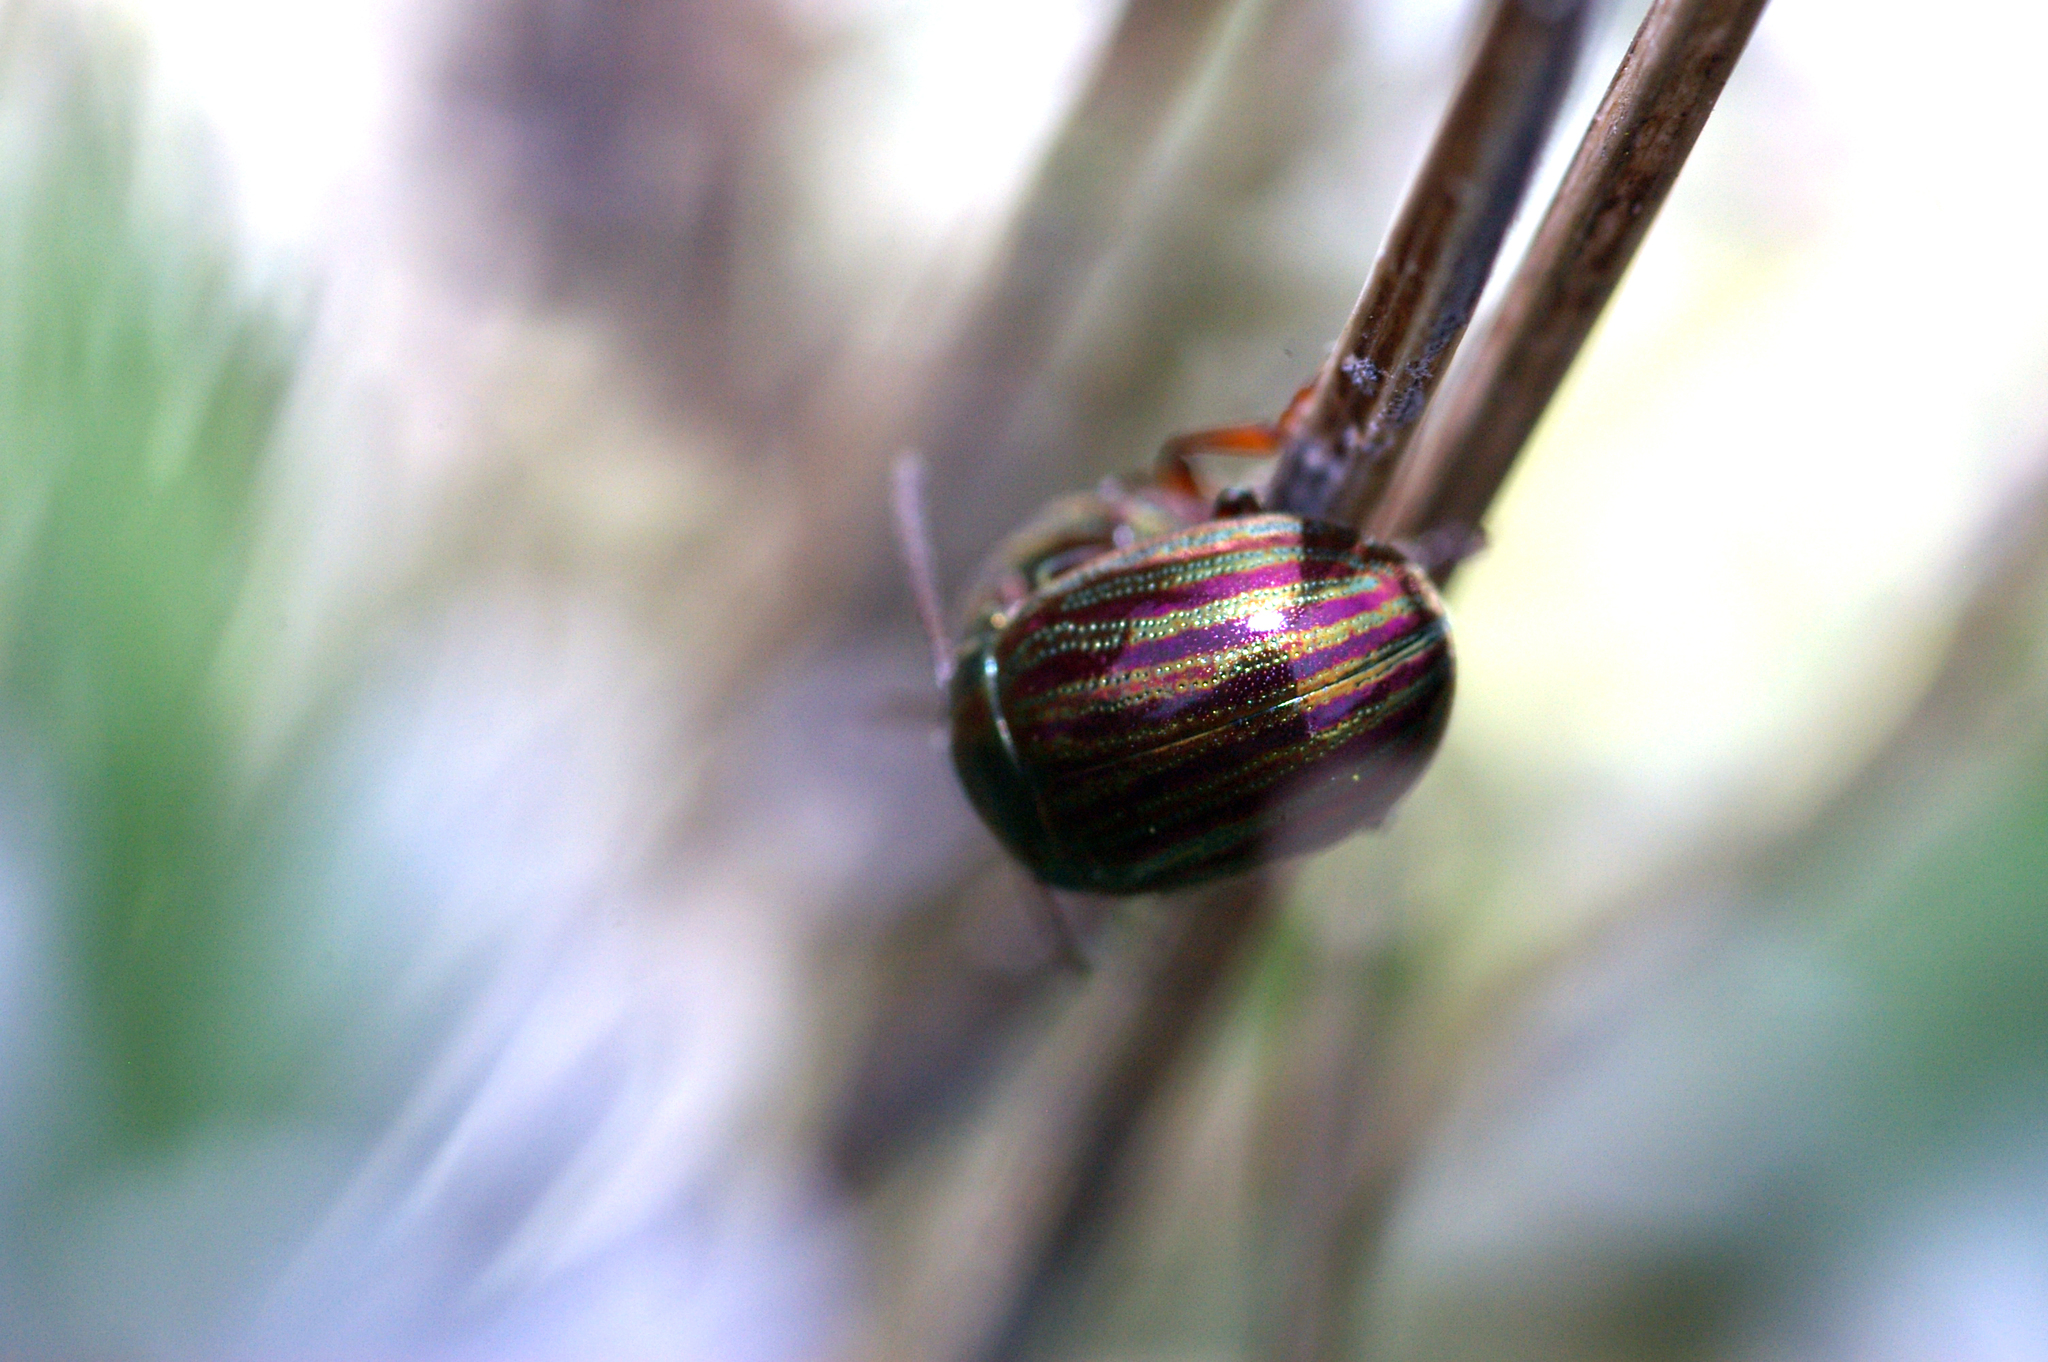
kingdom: Animalia
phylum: Arthropoda
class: Insecta
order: Coleoptera
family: Chrysomelidae
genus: Chrysolina
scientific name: Chrysolina americana
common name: Rosemary beetle
